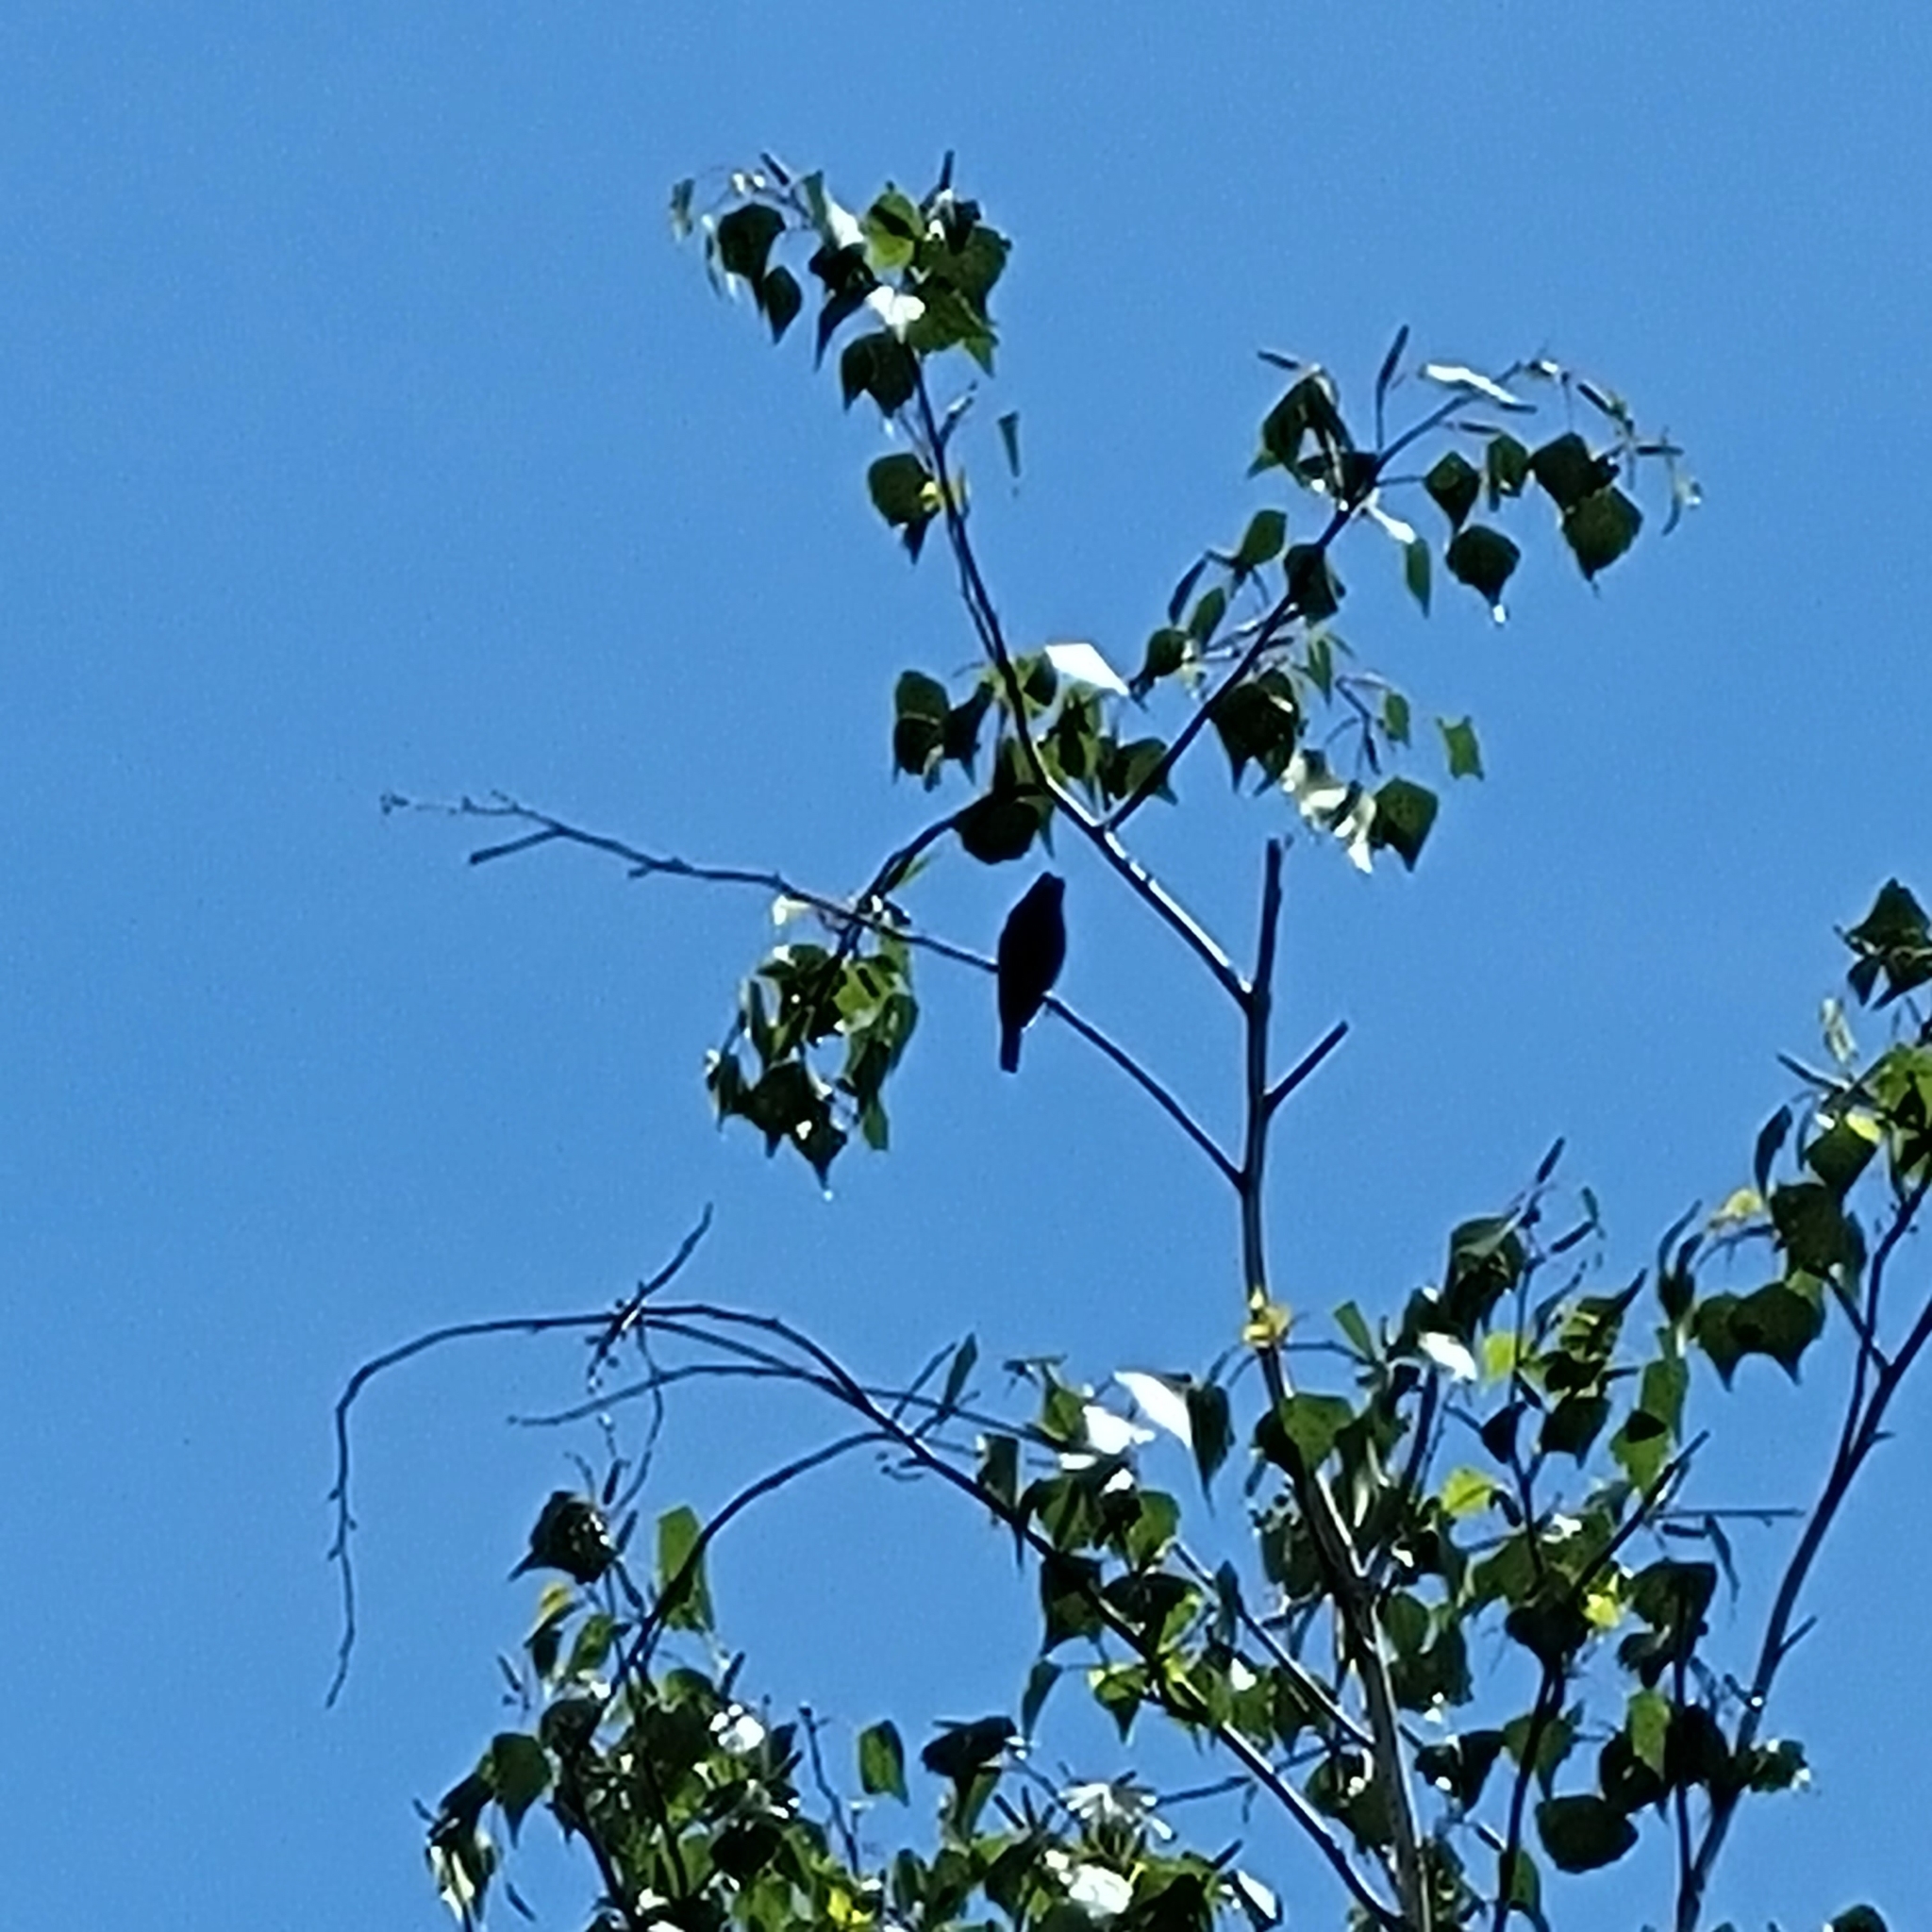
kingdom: Animalia
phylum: Chordata
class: Aves
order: Passeriformes
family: Cardinalidae
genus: Passerina
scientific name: Passerina cyanea
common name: Indigo bunting
